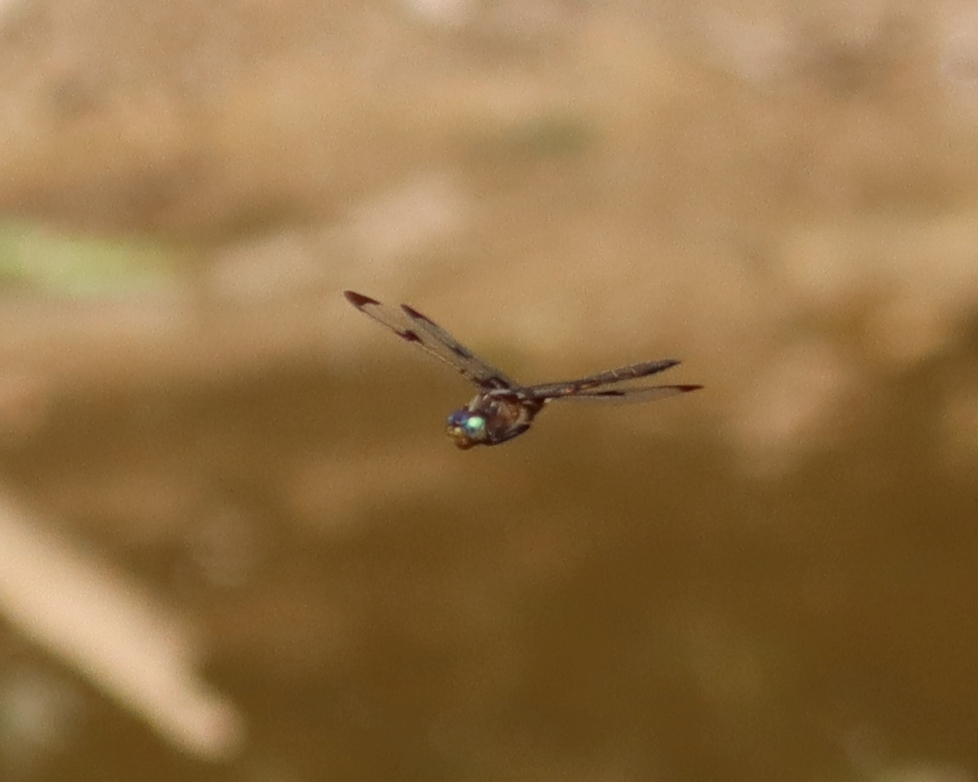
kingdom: Animalia
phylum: Arthropoda
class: Insecta
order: Odonata
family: Corduliidae
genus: Epitheca
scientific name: Epitheca princeps
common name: Prince baskettail
